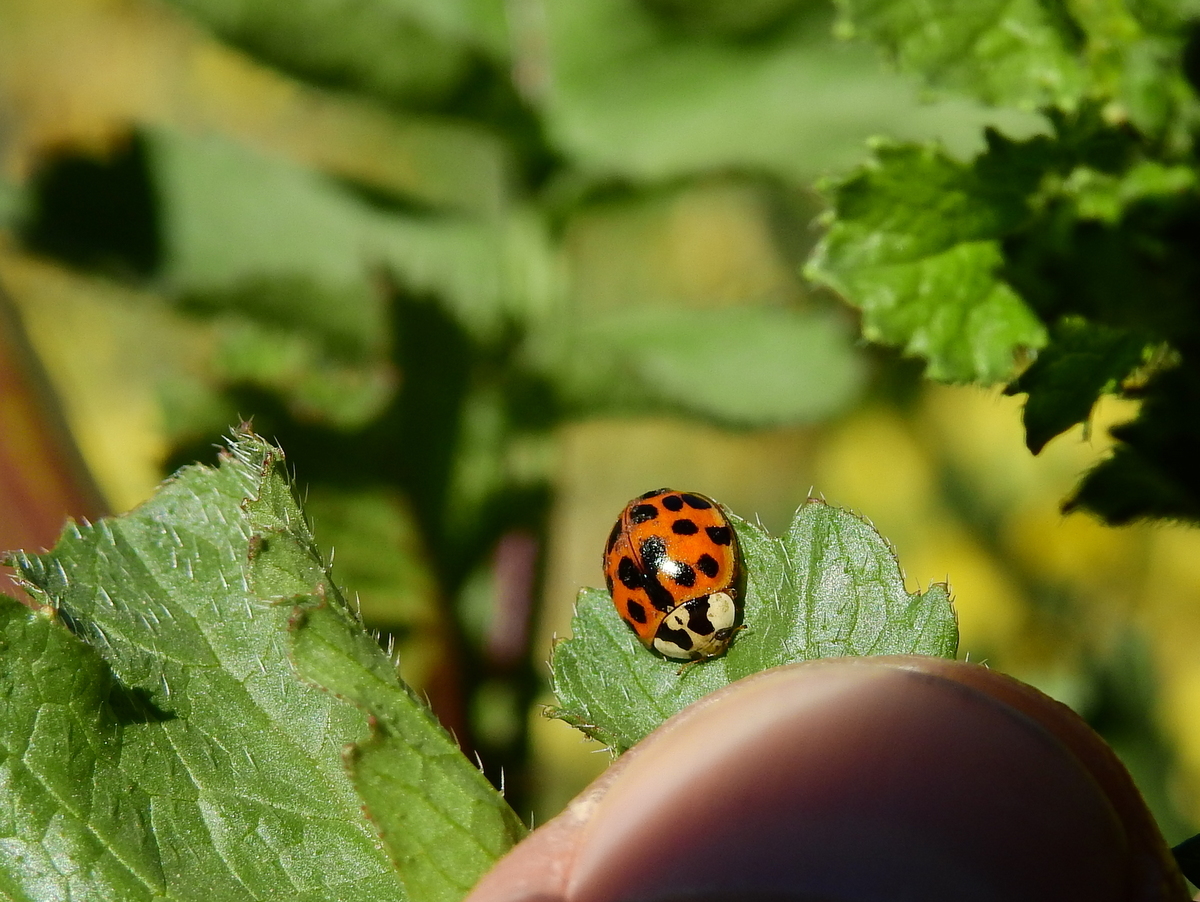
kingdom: Animalia
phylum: Arthropoda
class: Insecta
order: Coleoptera
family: Coccinellidae
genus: Harmonia
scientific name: Harmonia axyridis
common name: Harlequin ladybird
